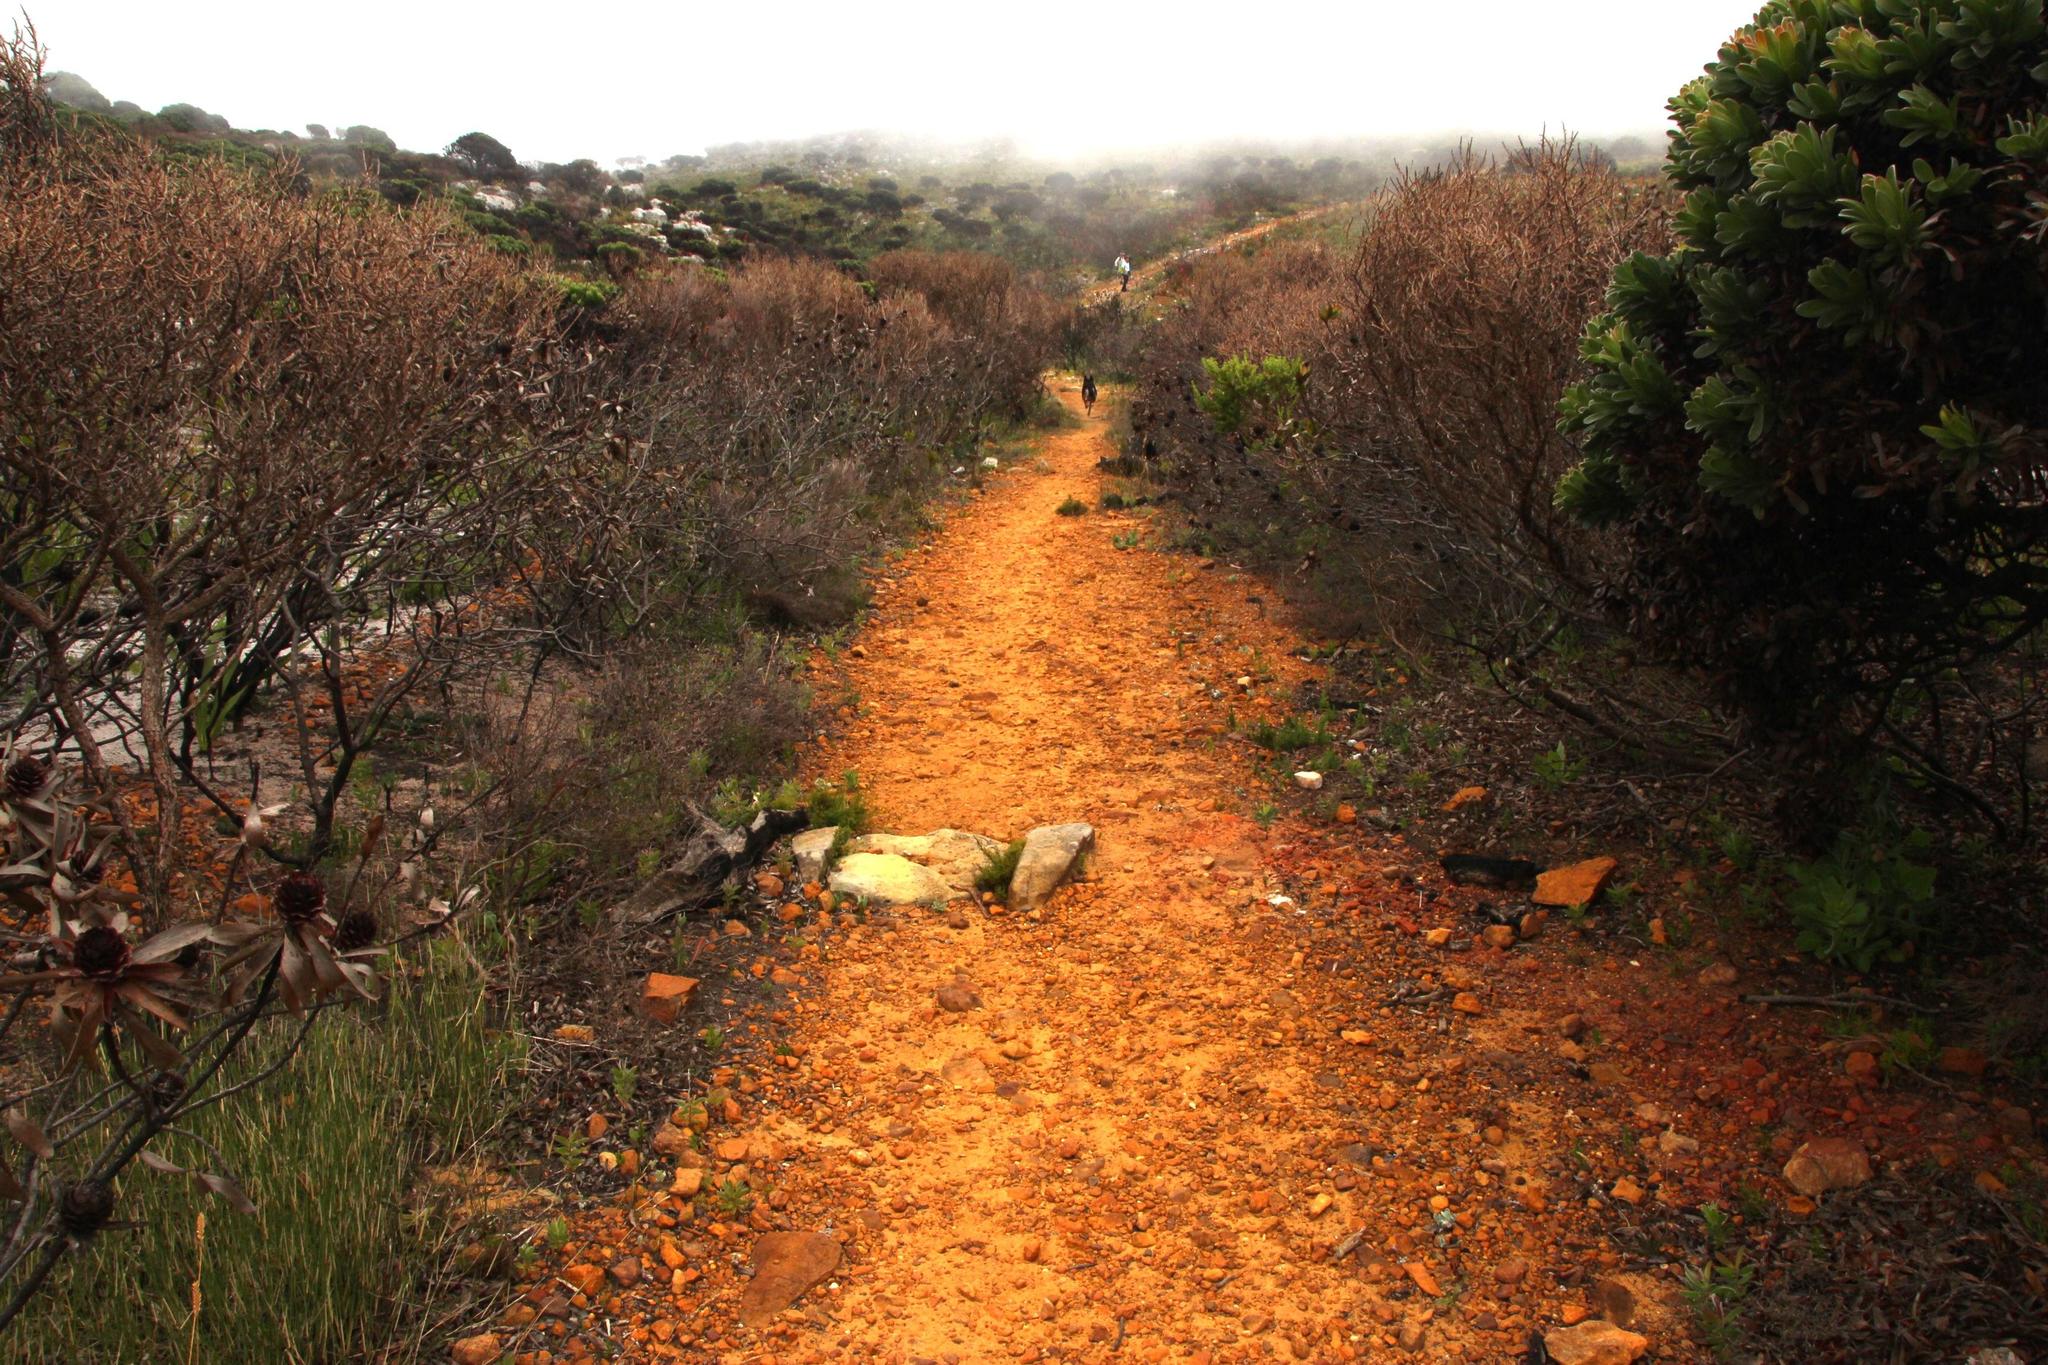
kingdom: Plantae
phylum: Tracheophyta
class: Magnoliopsida
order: Proteales
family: Proteaceae
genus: Leucadendron
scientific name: Leucadendron laureolum
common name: Golden sunshinebush
